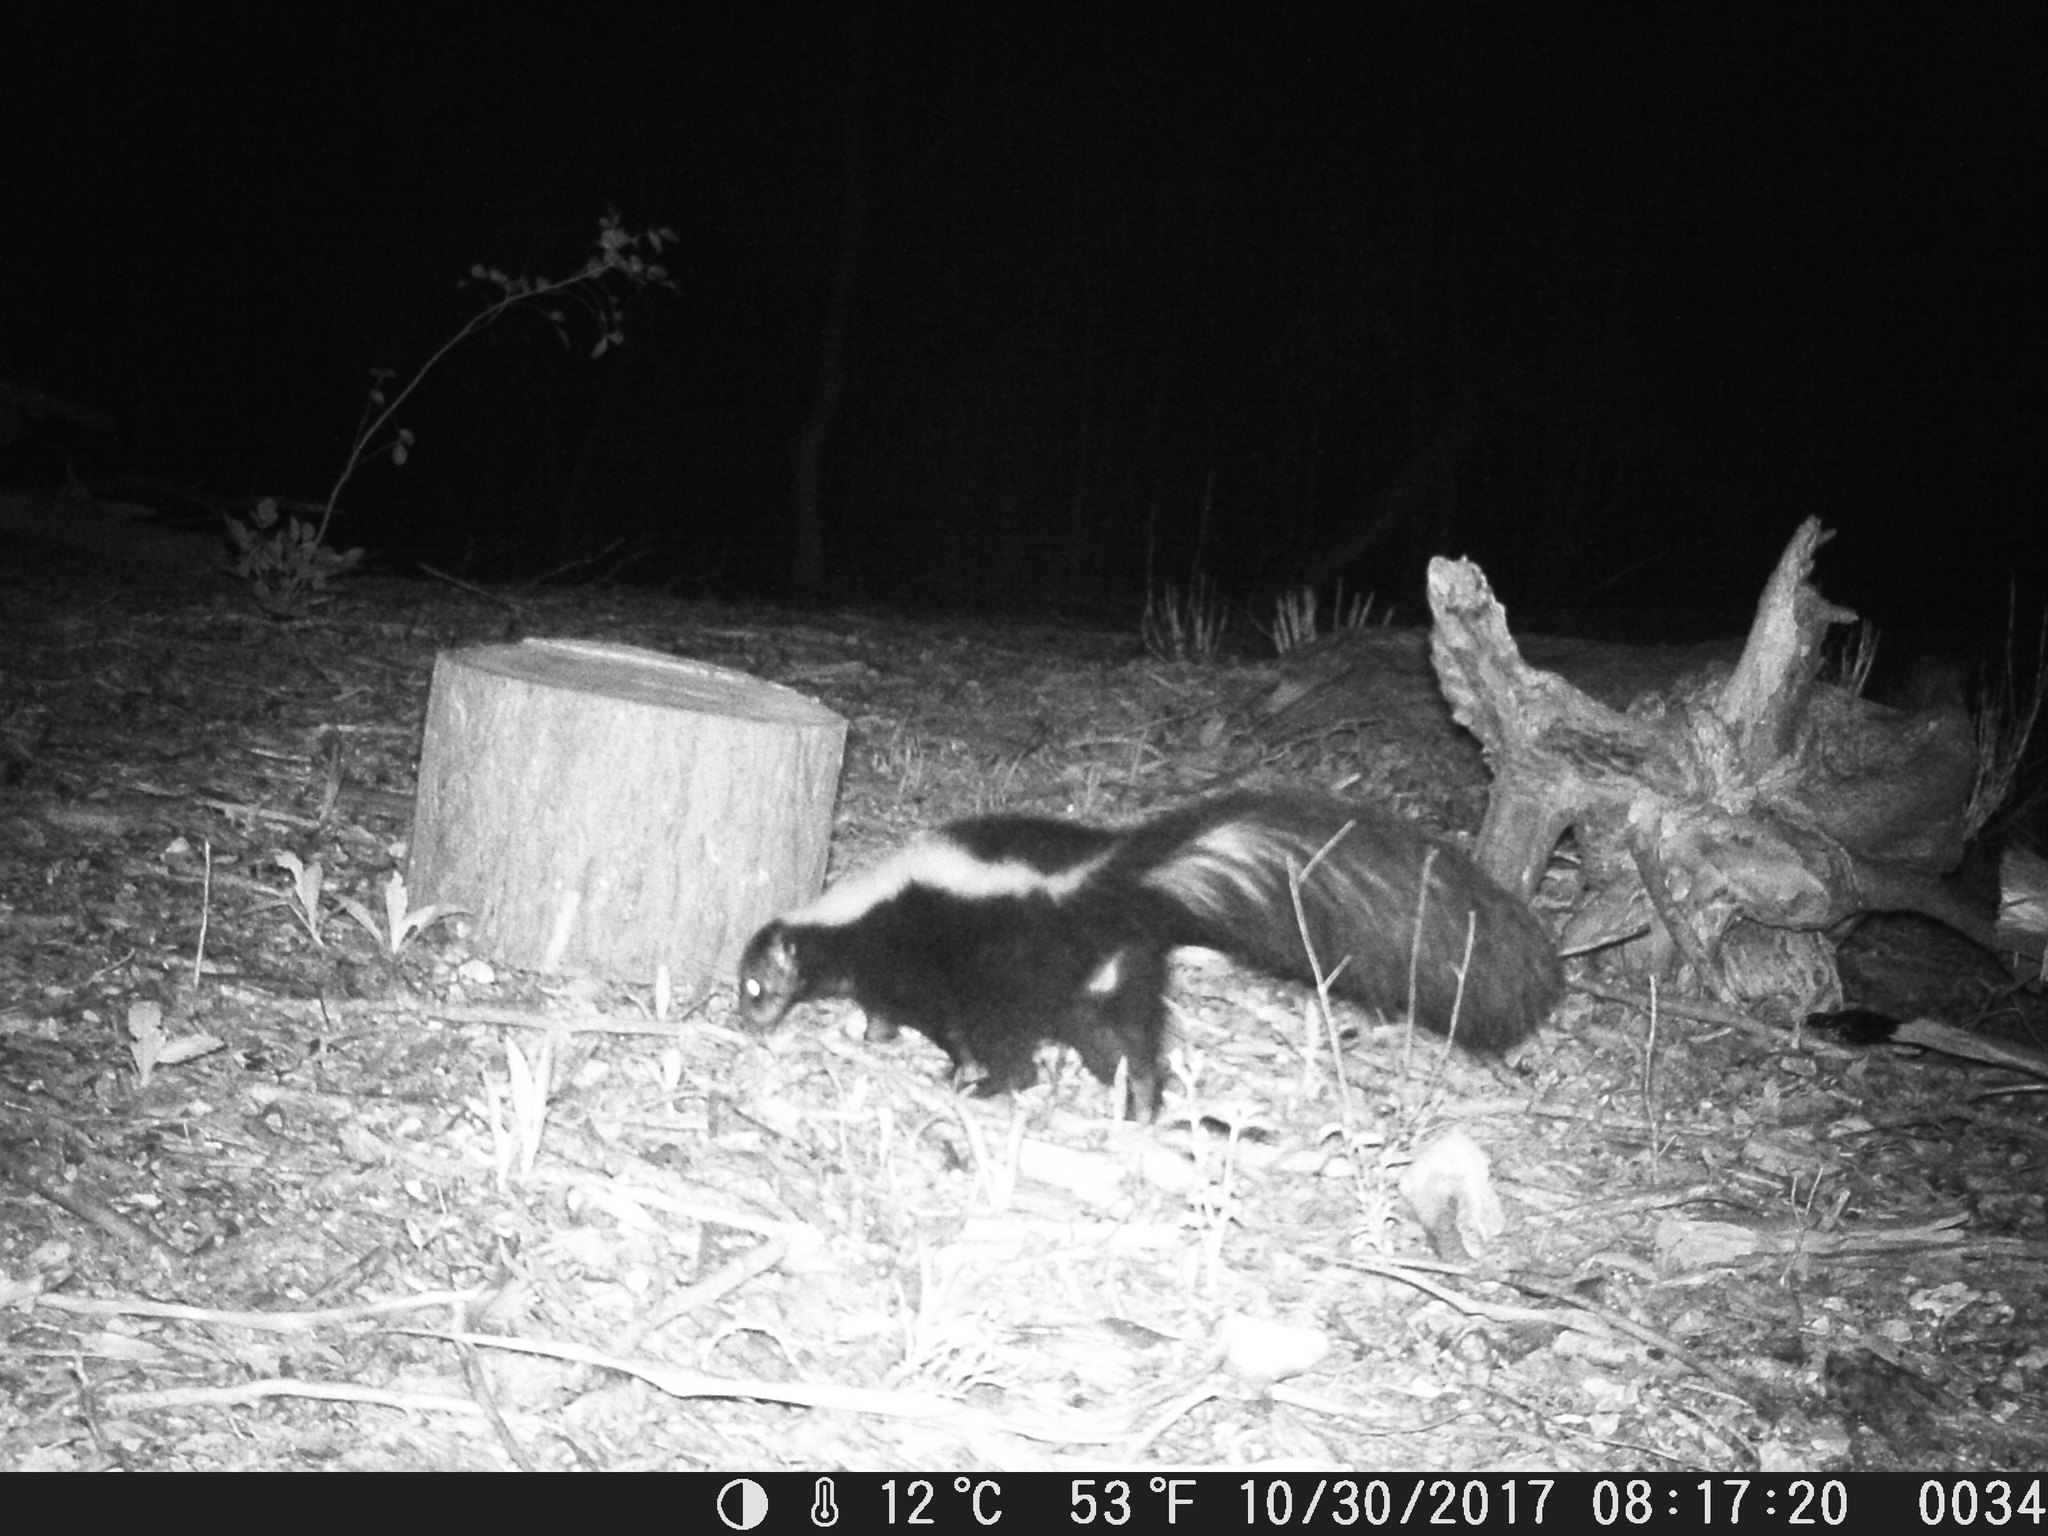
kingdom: Animalia
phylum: Chordata
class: Mammalia
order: Carnivora
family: Mephitidae
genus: Mephitis
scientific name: Mephitis mephitis
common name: Striped skunk
